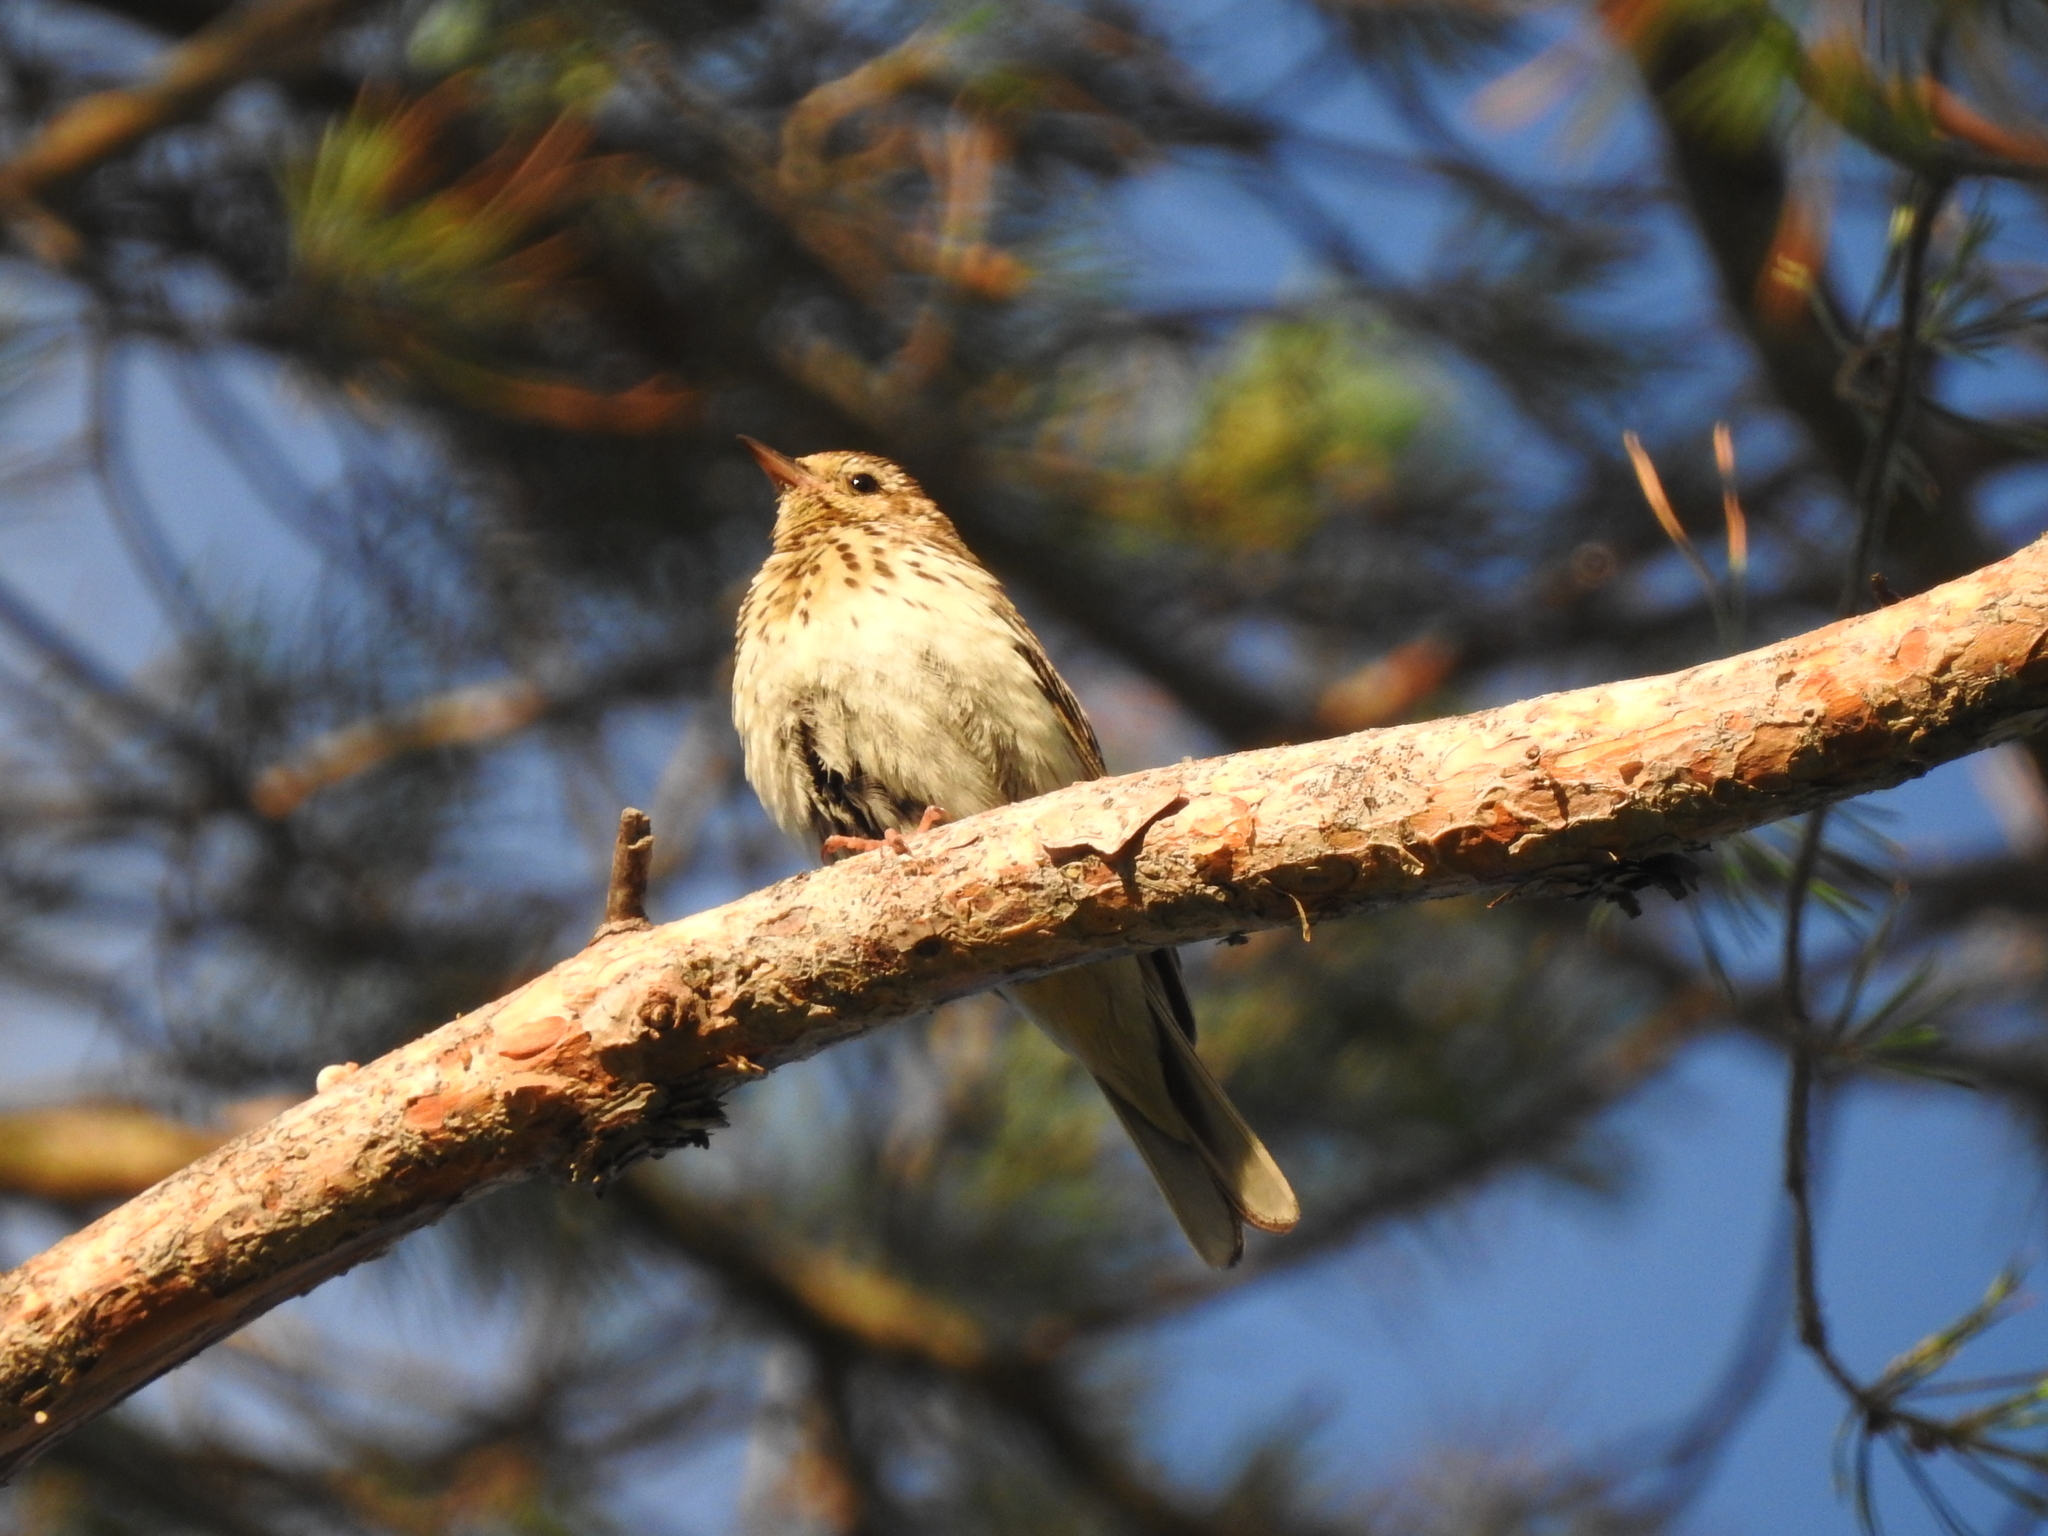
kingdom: Animalia
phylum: Chordata
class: Aves
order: Passeriformes
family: Motacillidae
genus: Anthus
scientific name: Anthus trivialis
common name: Tree pipit
